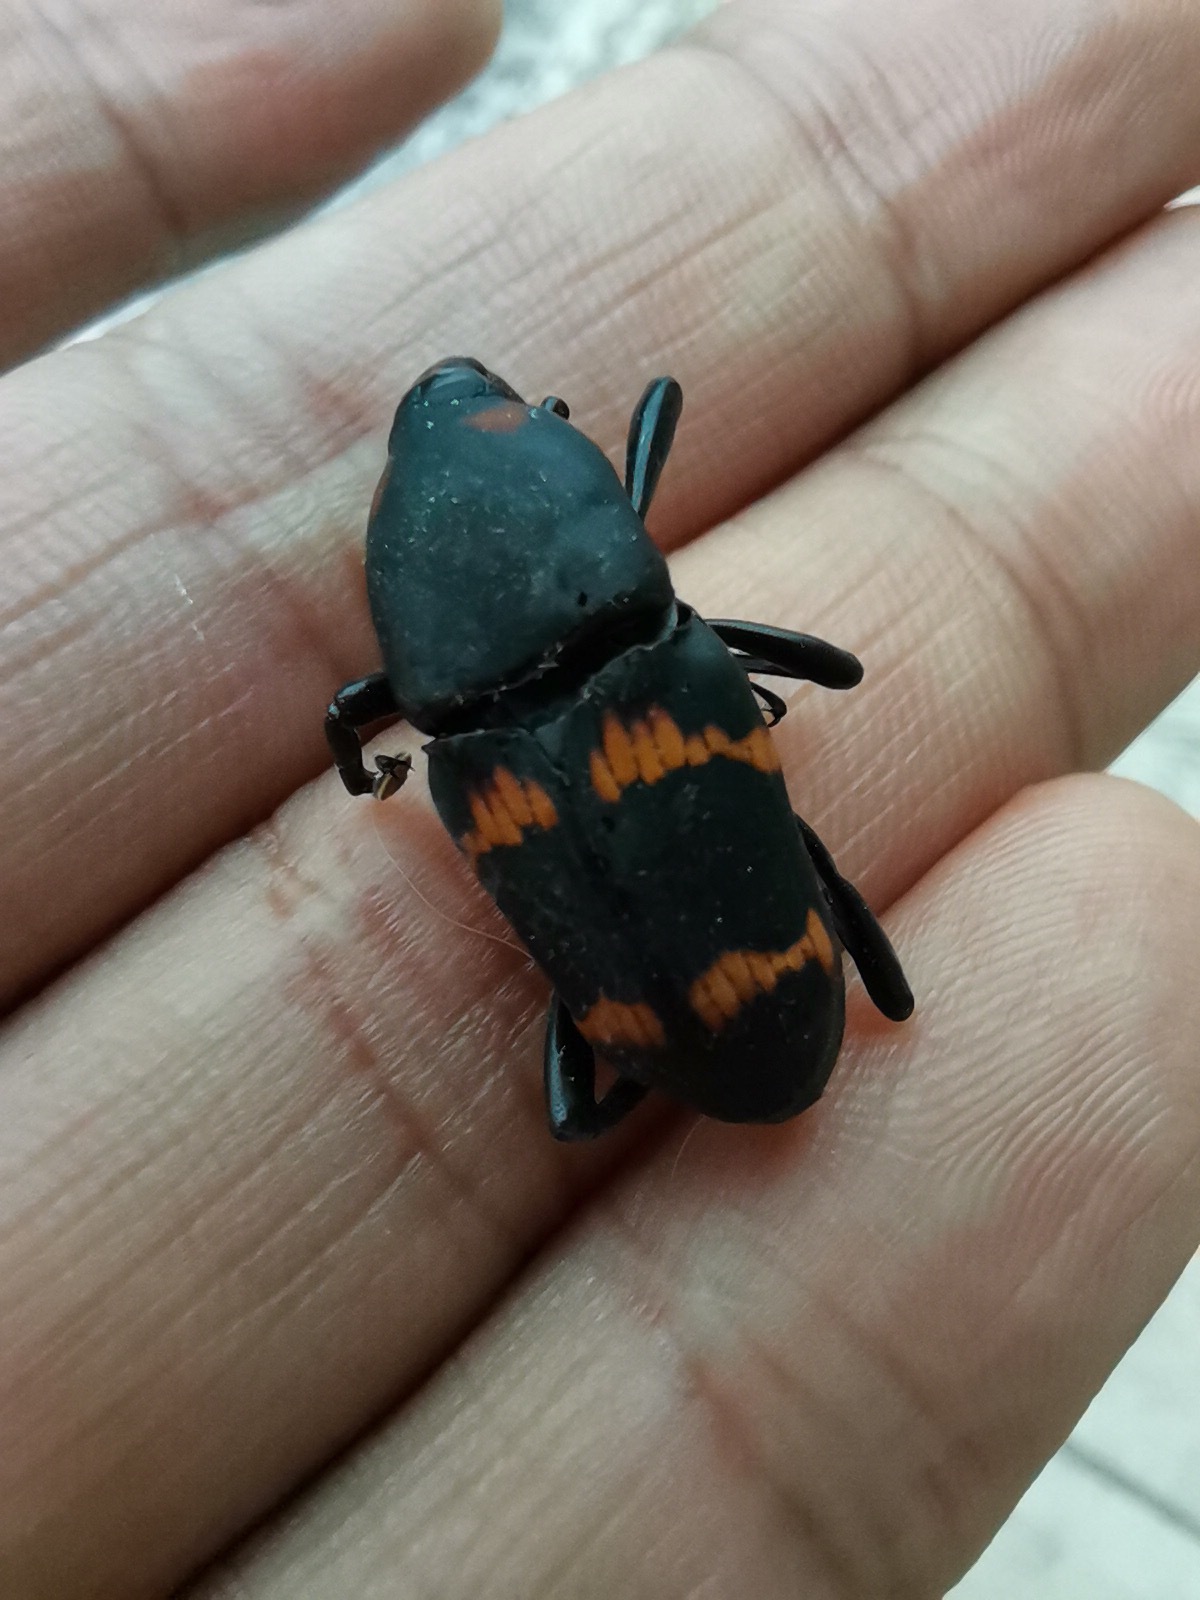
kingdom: Animalia
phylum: Arthropoda
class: Insecta
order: Coleoptera
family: Dryophthoridae
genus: Cactophagus
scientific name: Cactophagus spinolae
